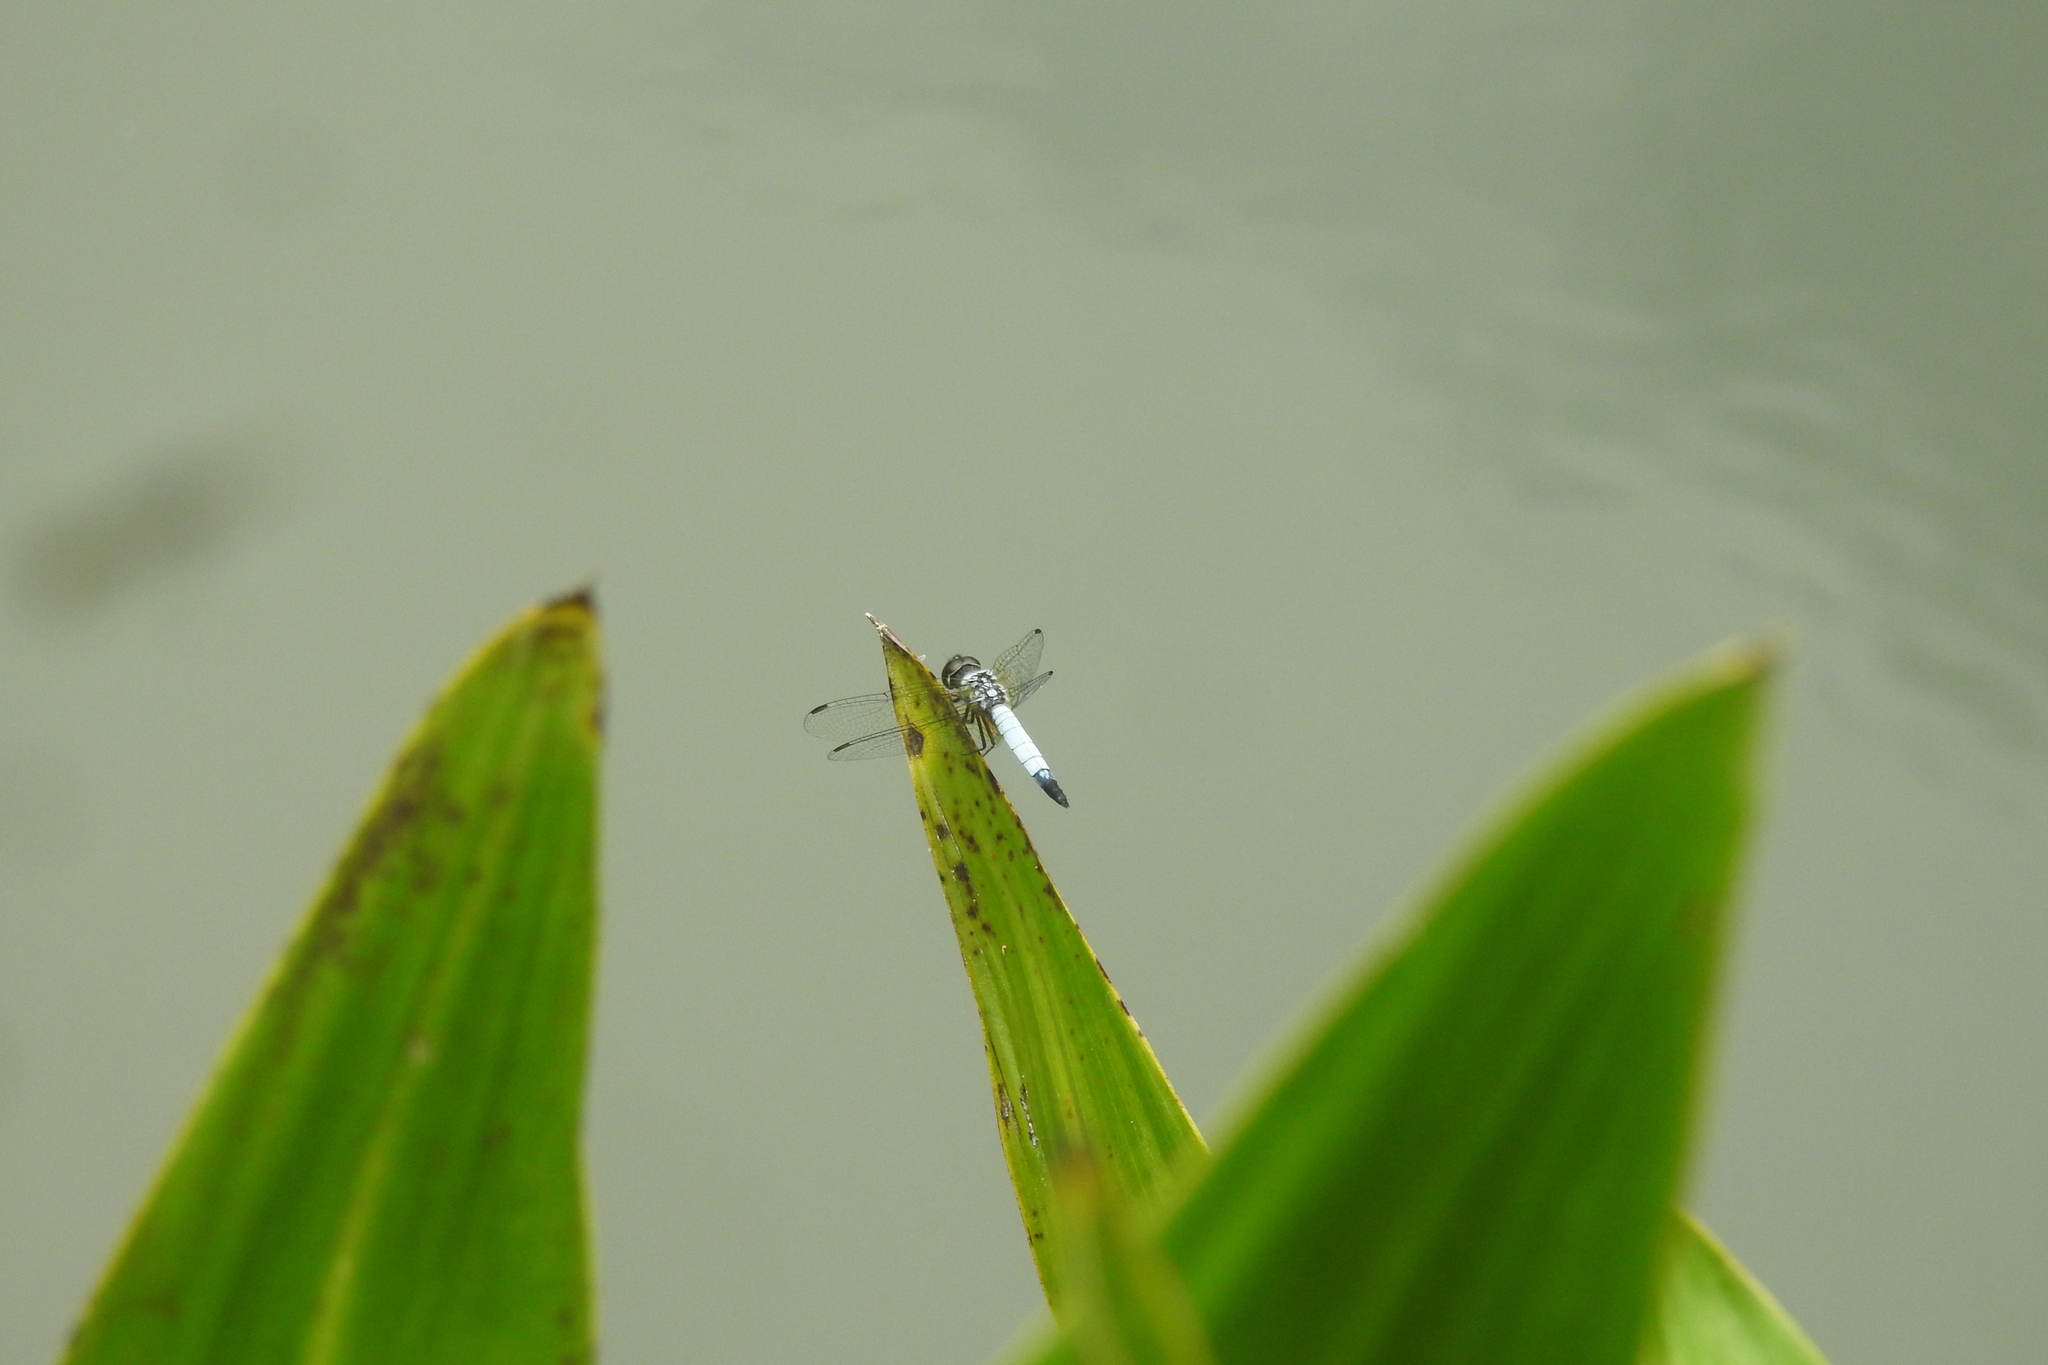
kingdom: Animalia
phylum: Arthropoda
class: Insecta
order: Odonata
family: Libellulidae
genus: Aethriamanta
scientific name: Aethriamanta gracilis
